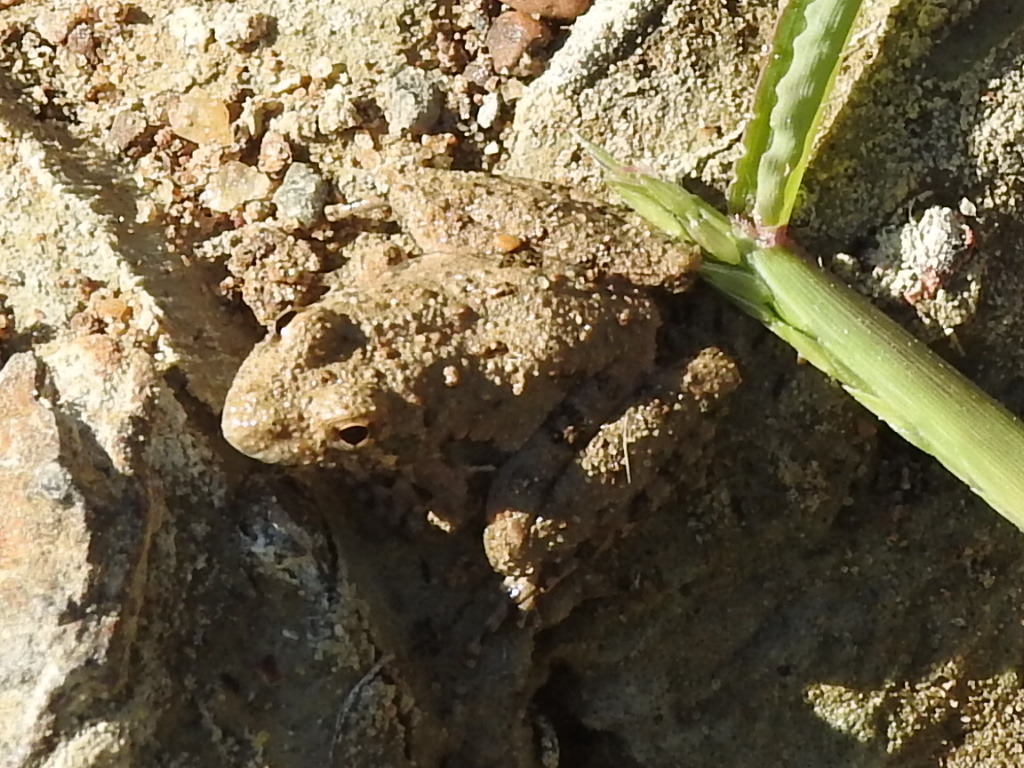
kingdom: Animalia
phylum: Chordata
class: Amphibia
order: Anura
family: Hylidae
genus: Acris
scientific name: Acris blanchardi
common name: Blanchard's cricket frog
